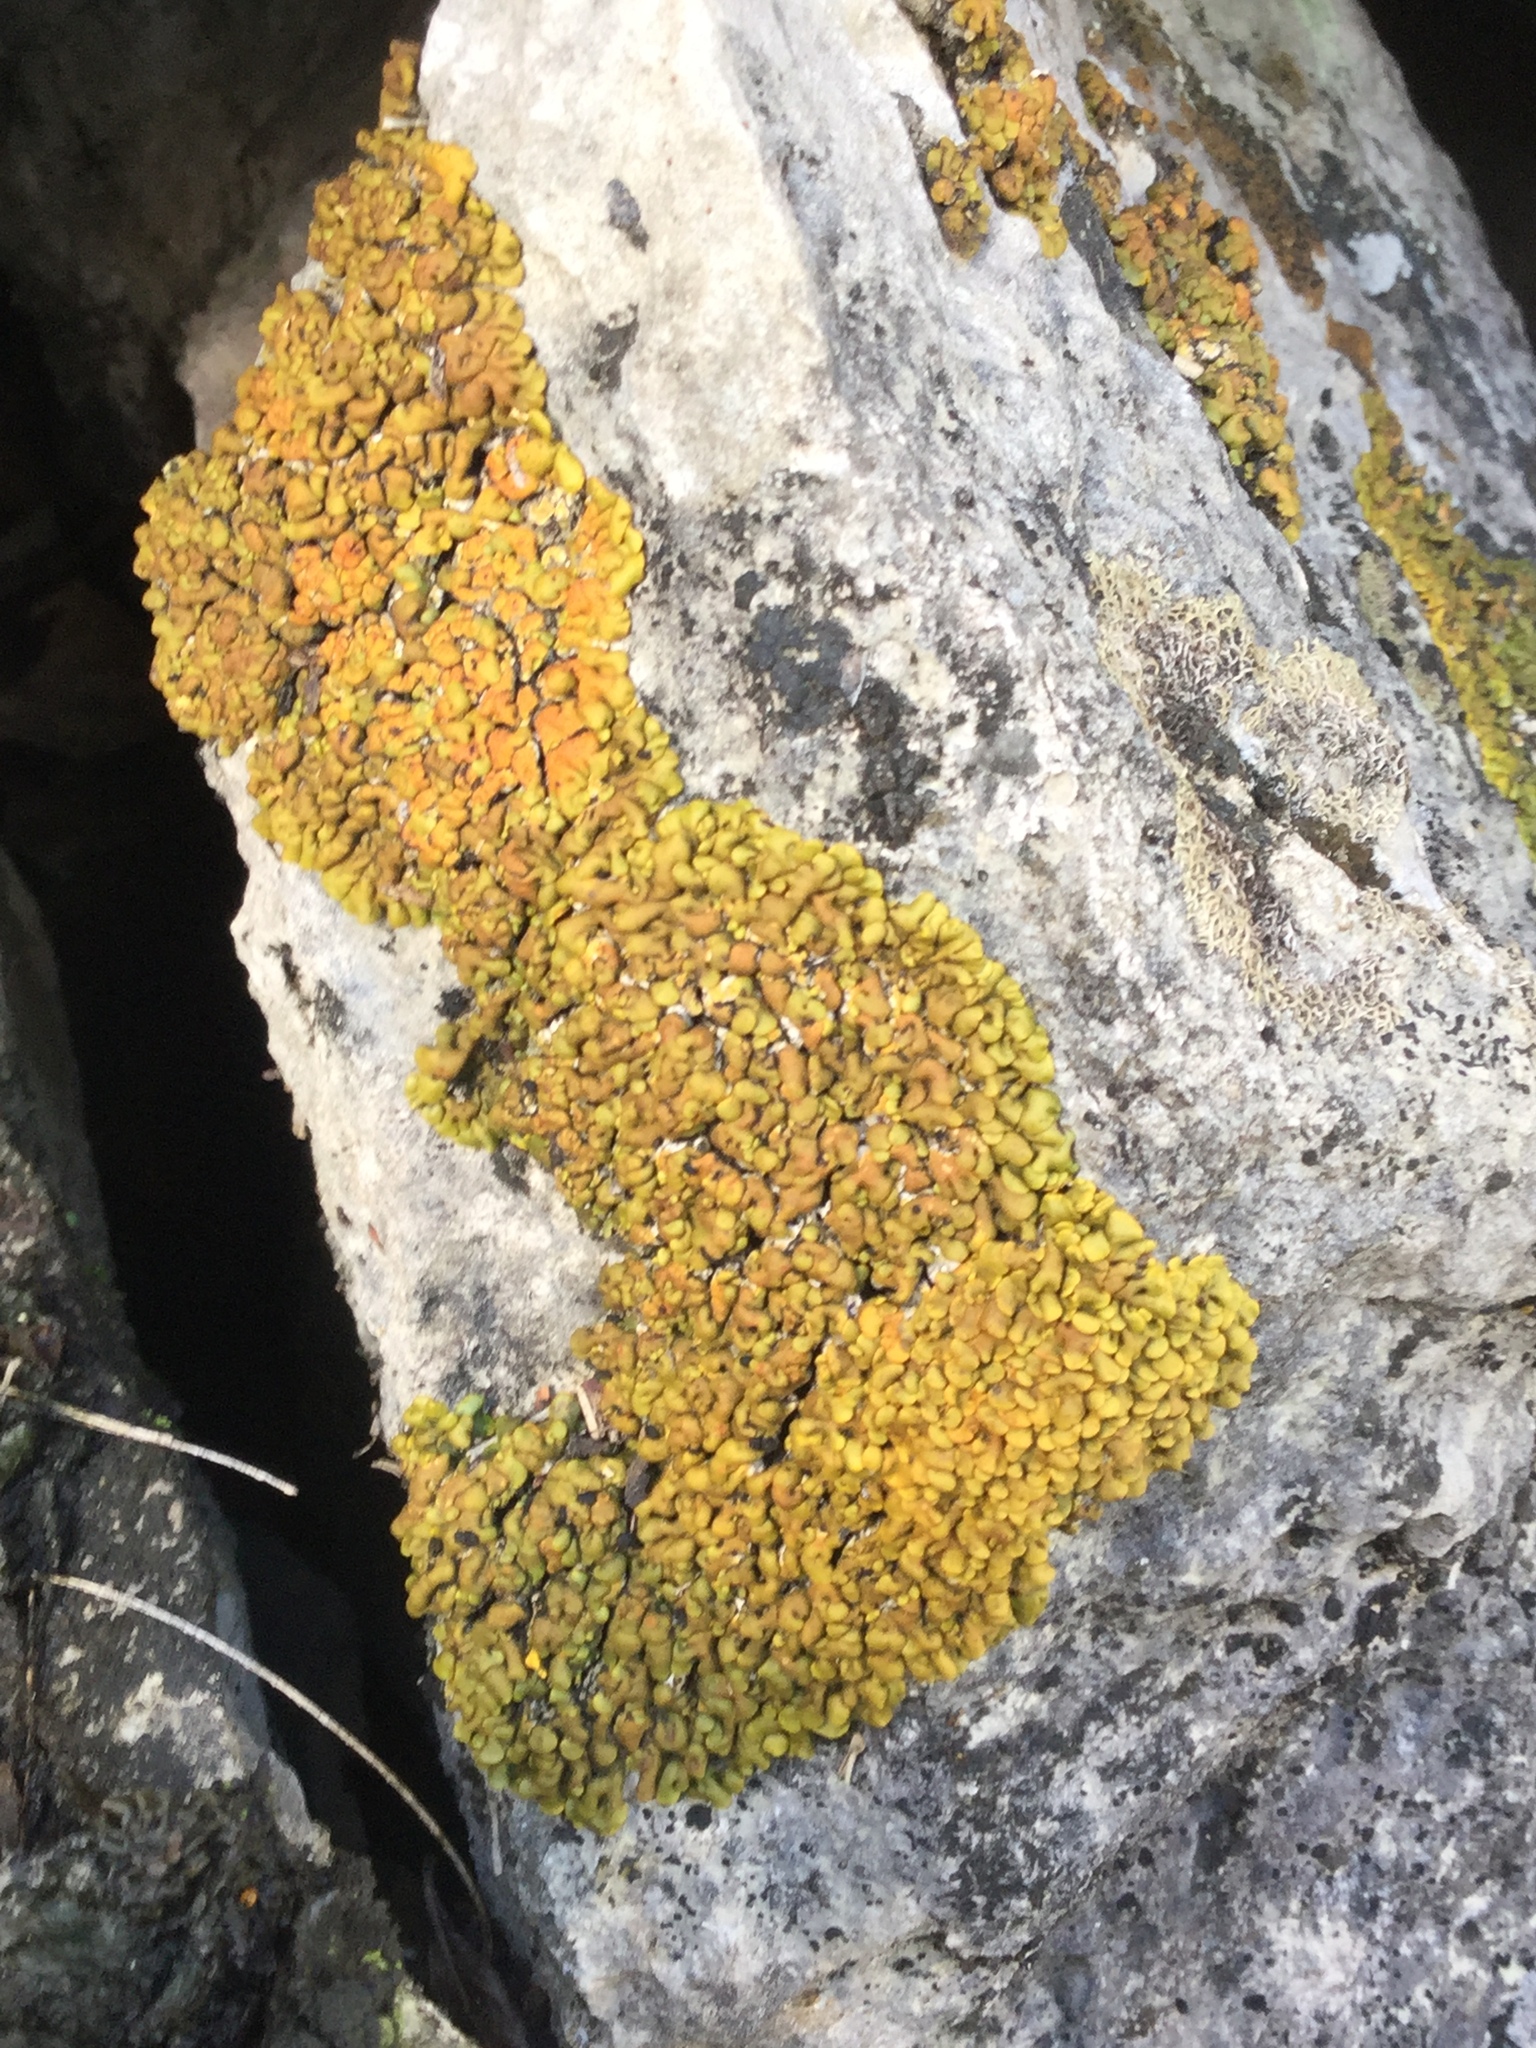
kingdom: Fungi
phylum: Ascomycota
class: Lecanoromycetes
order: Lecanorales
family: Catillariaceae
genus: Xanthopsorella
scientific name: Xanthopsorella texana
